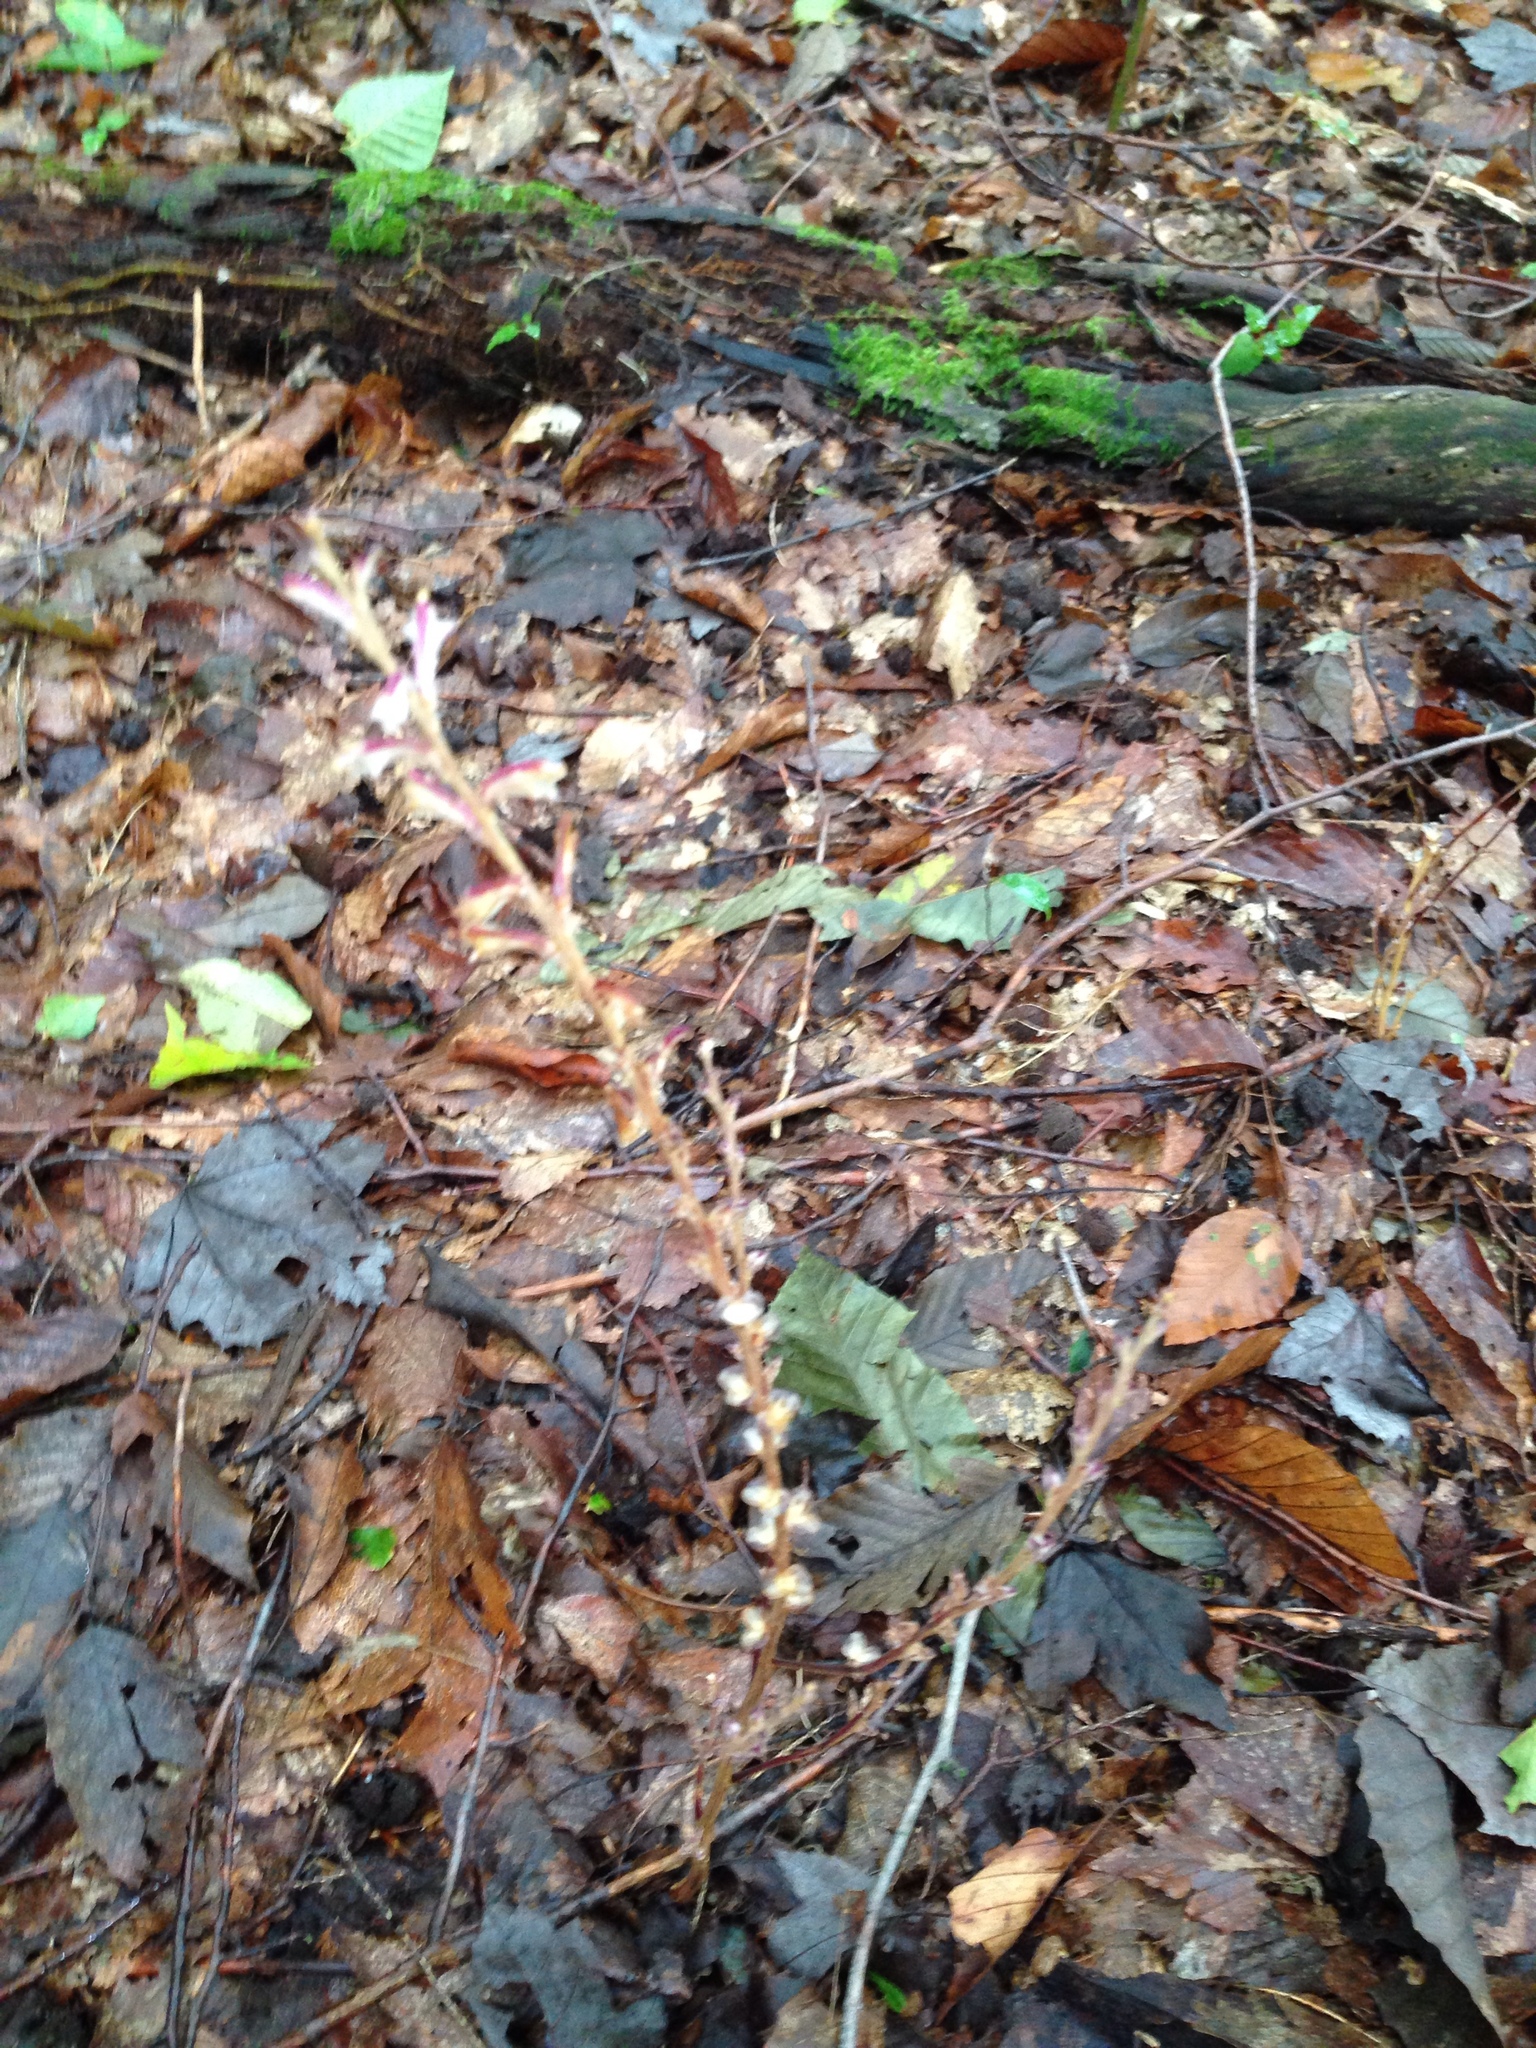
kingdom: Plantae
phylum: Tracheophyta
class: Magnoliopsida
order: Lamiales
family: Orobanchaceae
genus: Epifagus
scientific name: Epifagus virginiana
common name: Beechdrops
